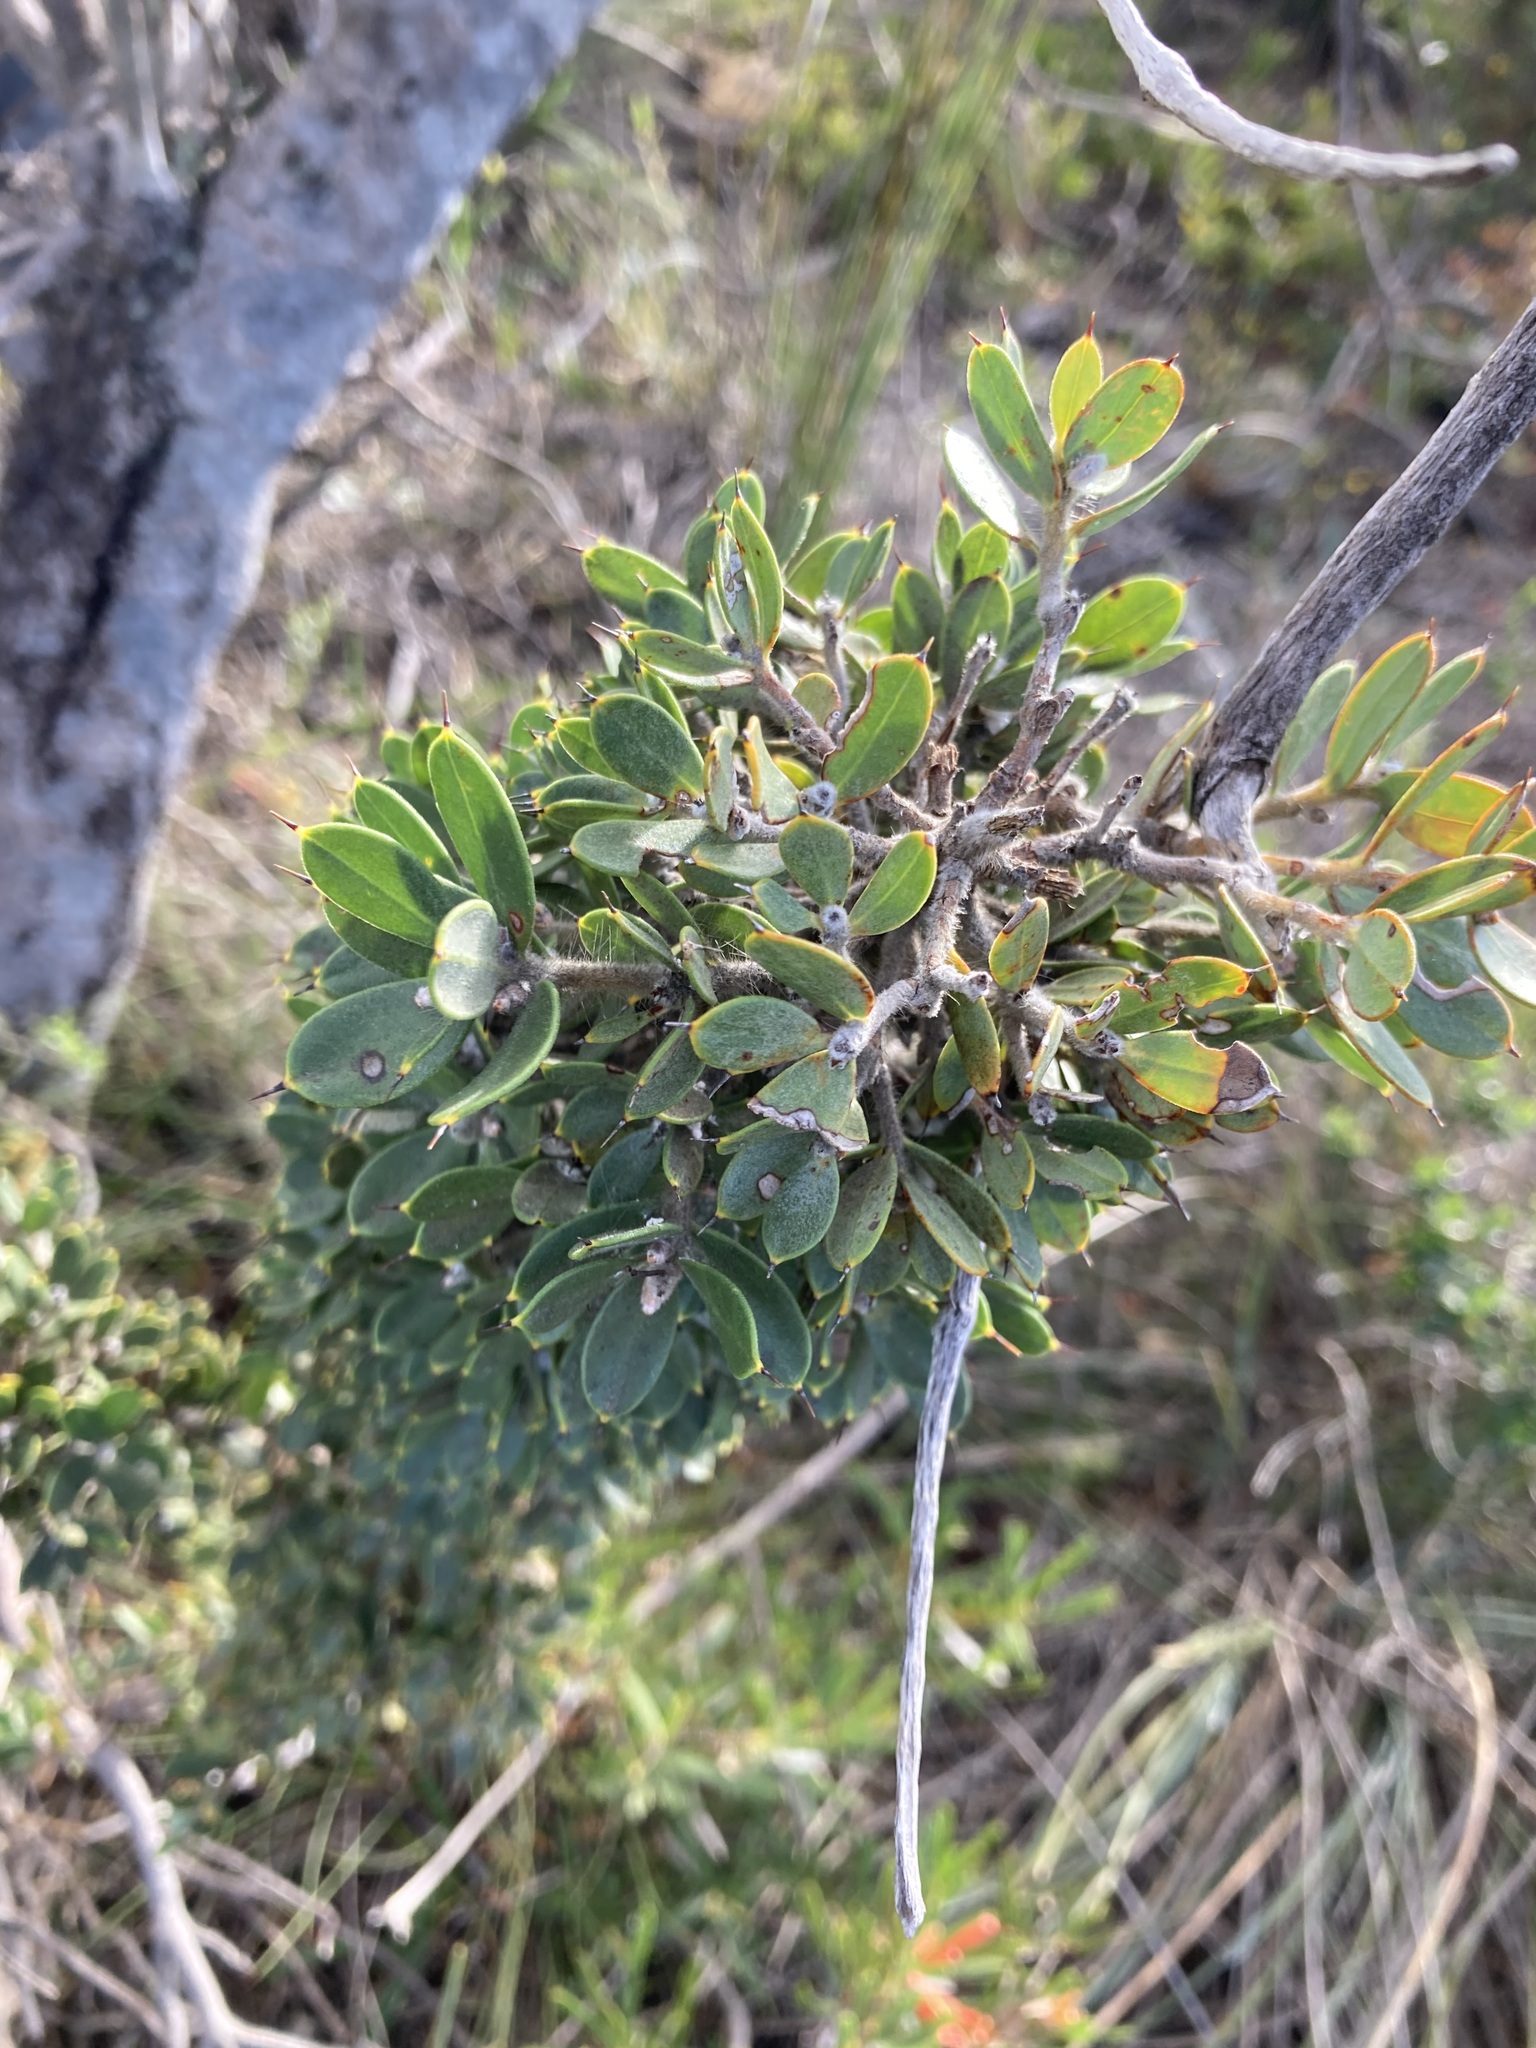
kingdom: Plantae
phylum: Tracheophyta
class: Magnoliopsida
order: Proteales
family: Proteaceae
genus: Hakea
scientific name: Hakea ruscifolia
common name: Candle hakea
